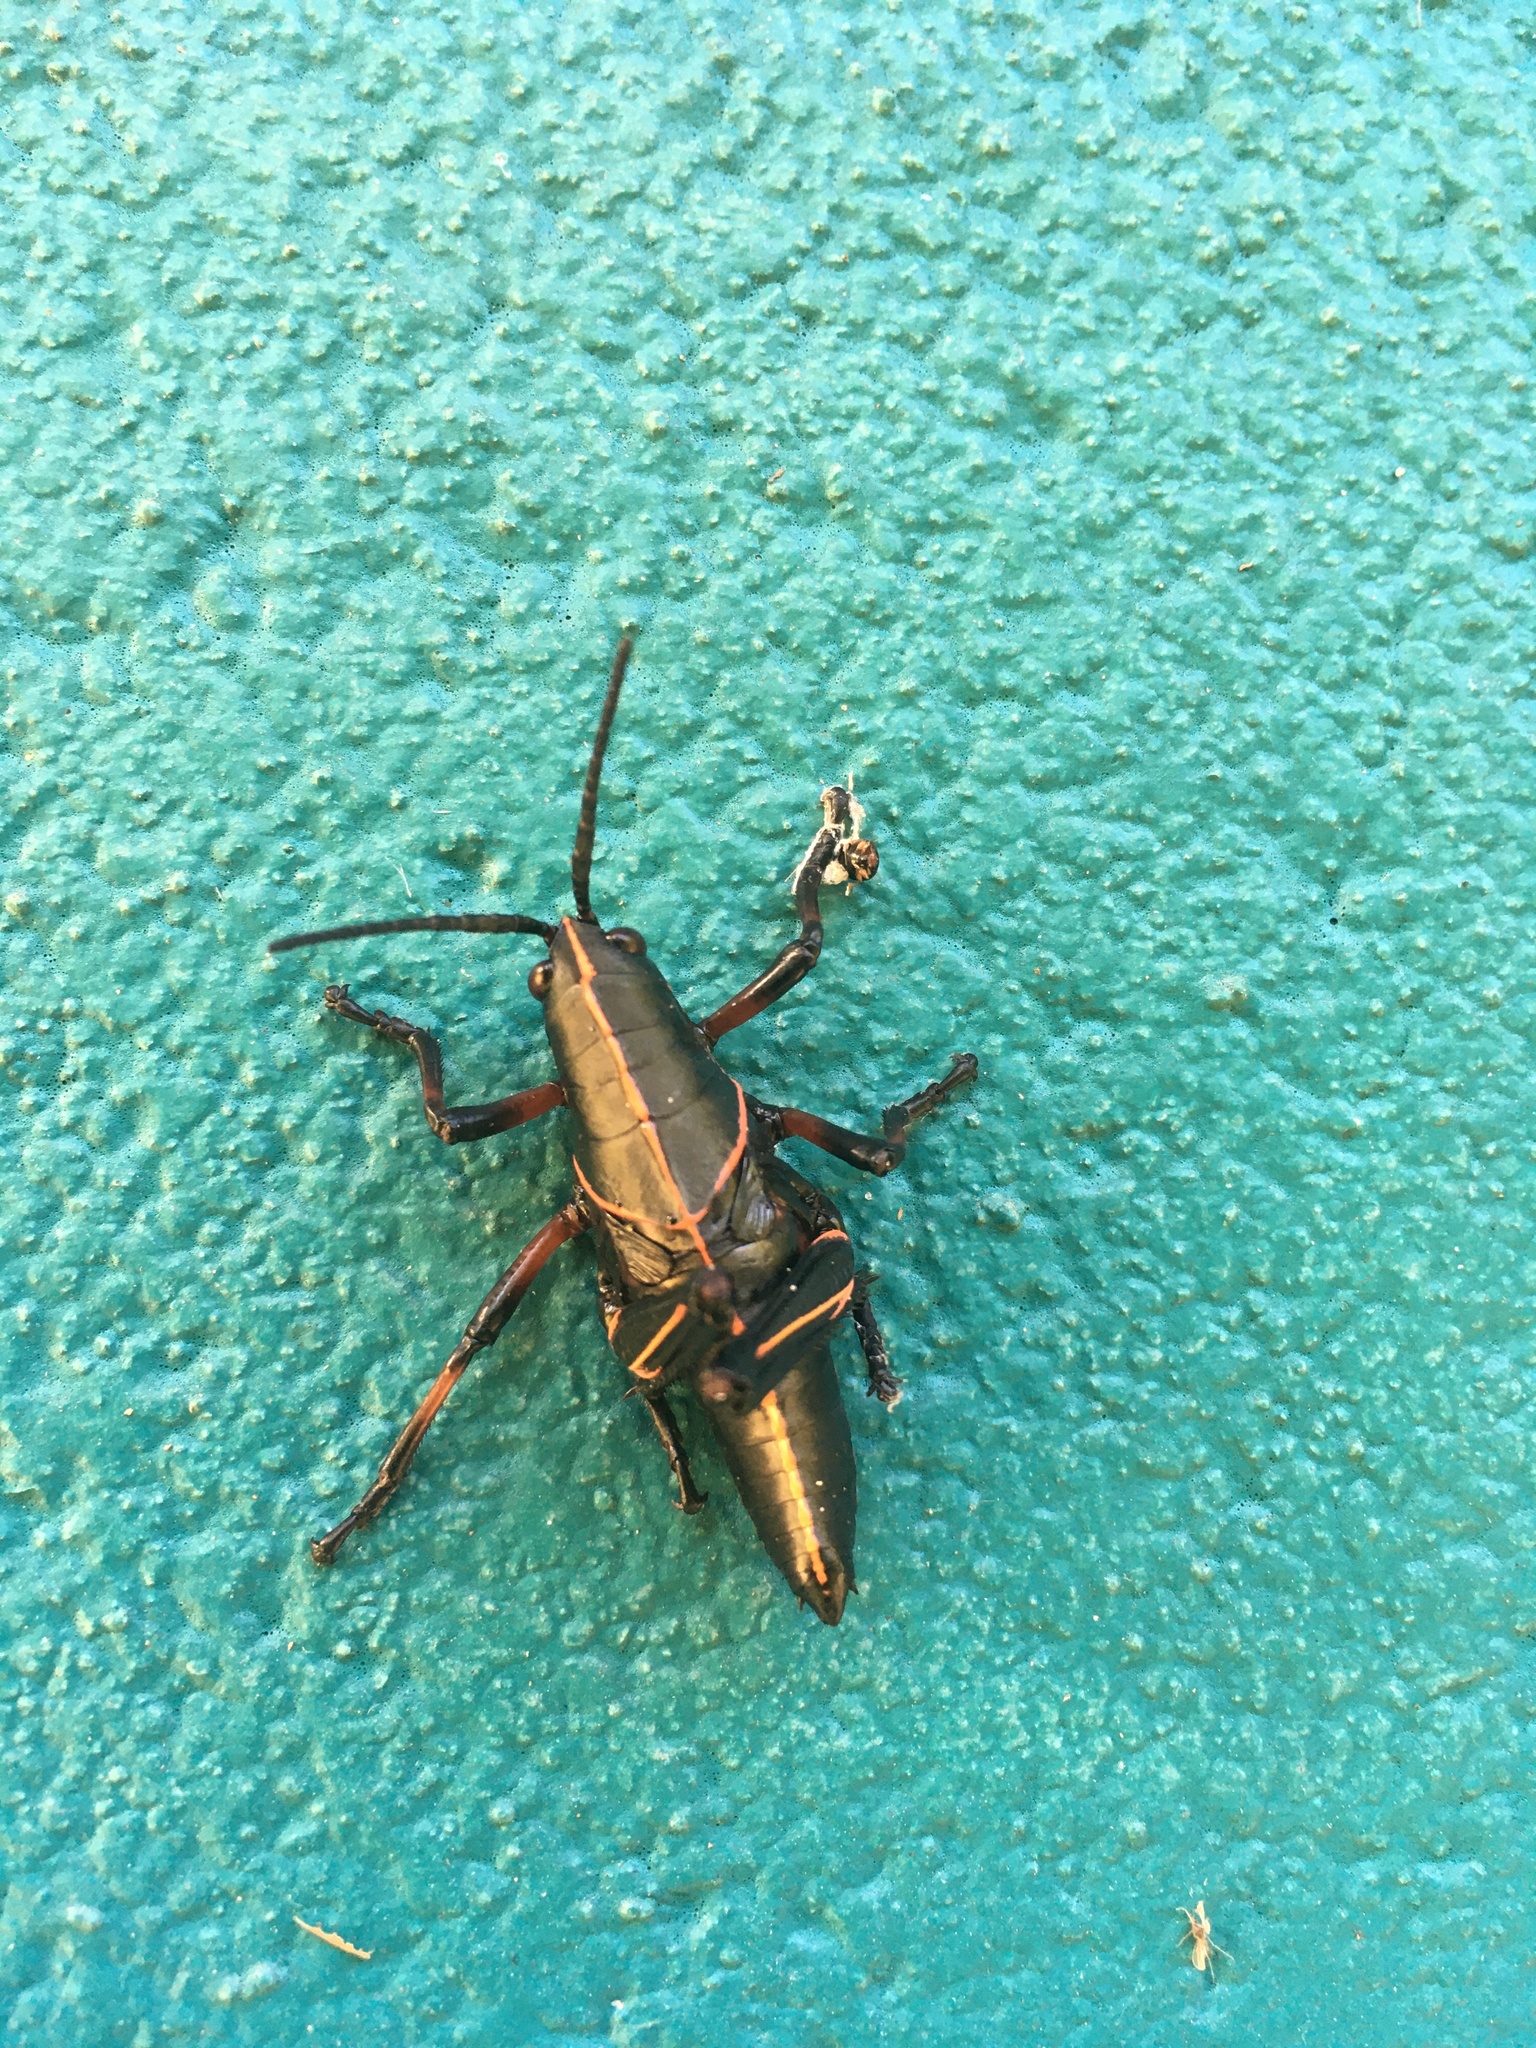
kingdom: Animalia
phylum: Arthropoda
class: Insecta
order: Orthoptera
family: Romaleidae
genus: Romalea
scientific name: Romalea microptera
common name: Eastern lubber grasshopper
